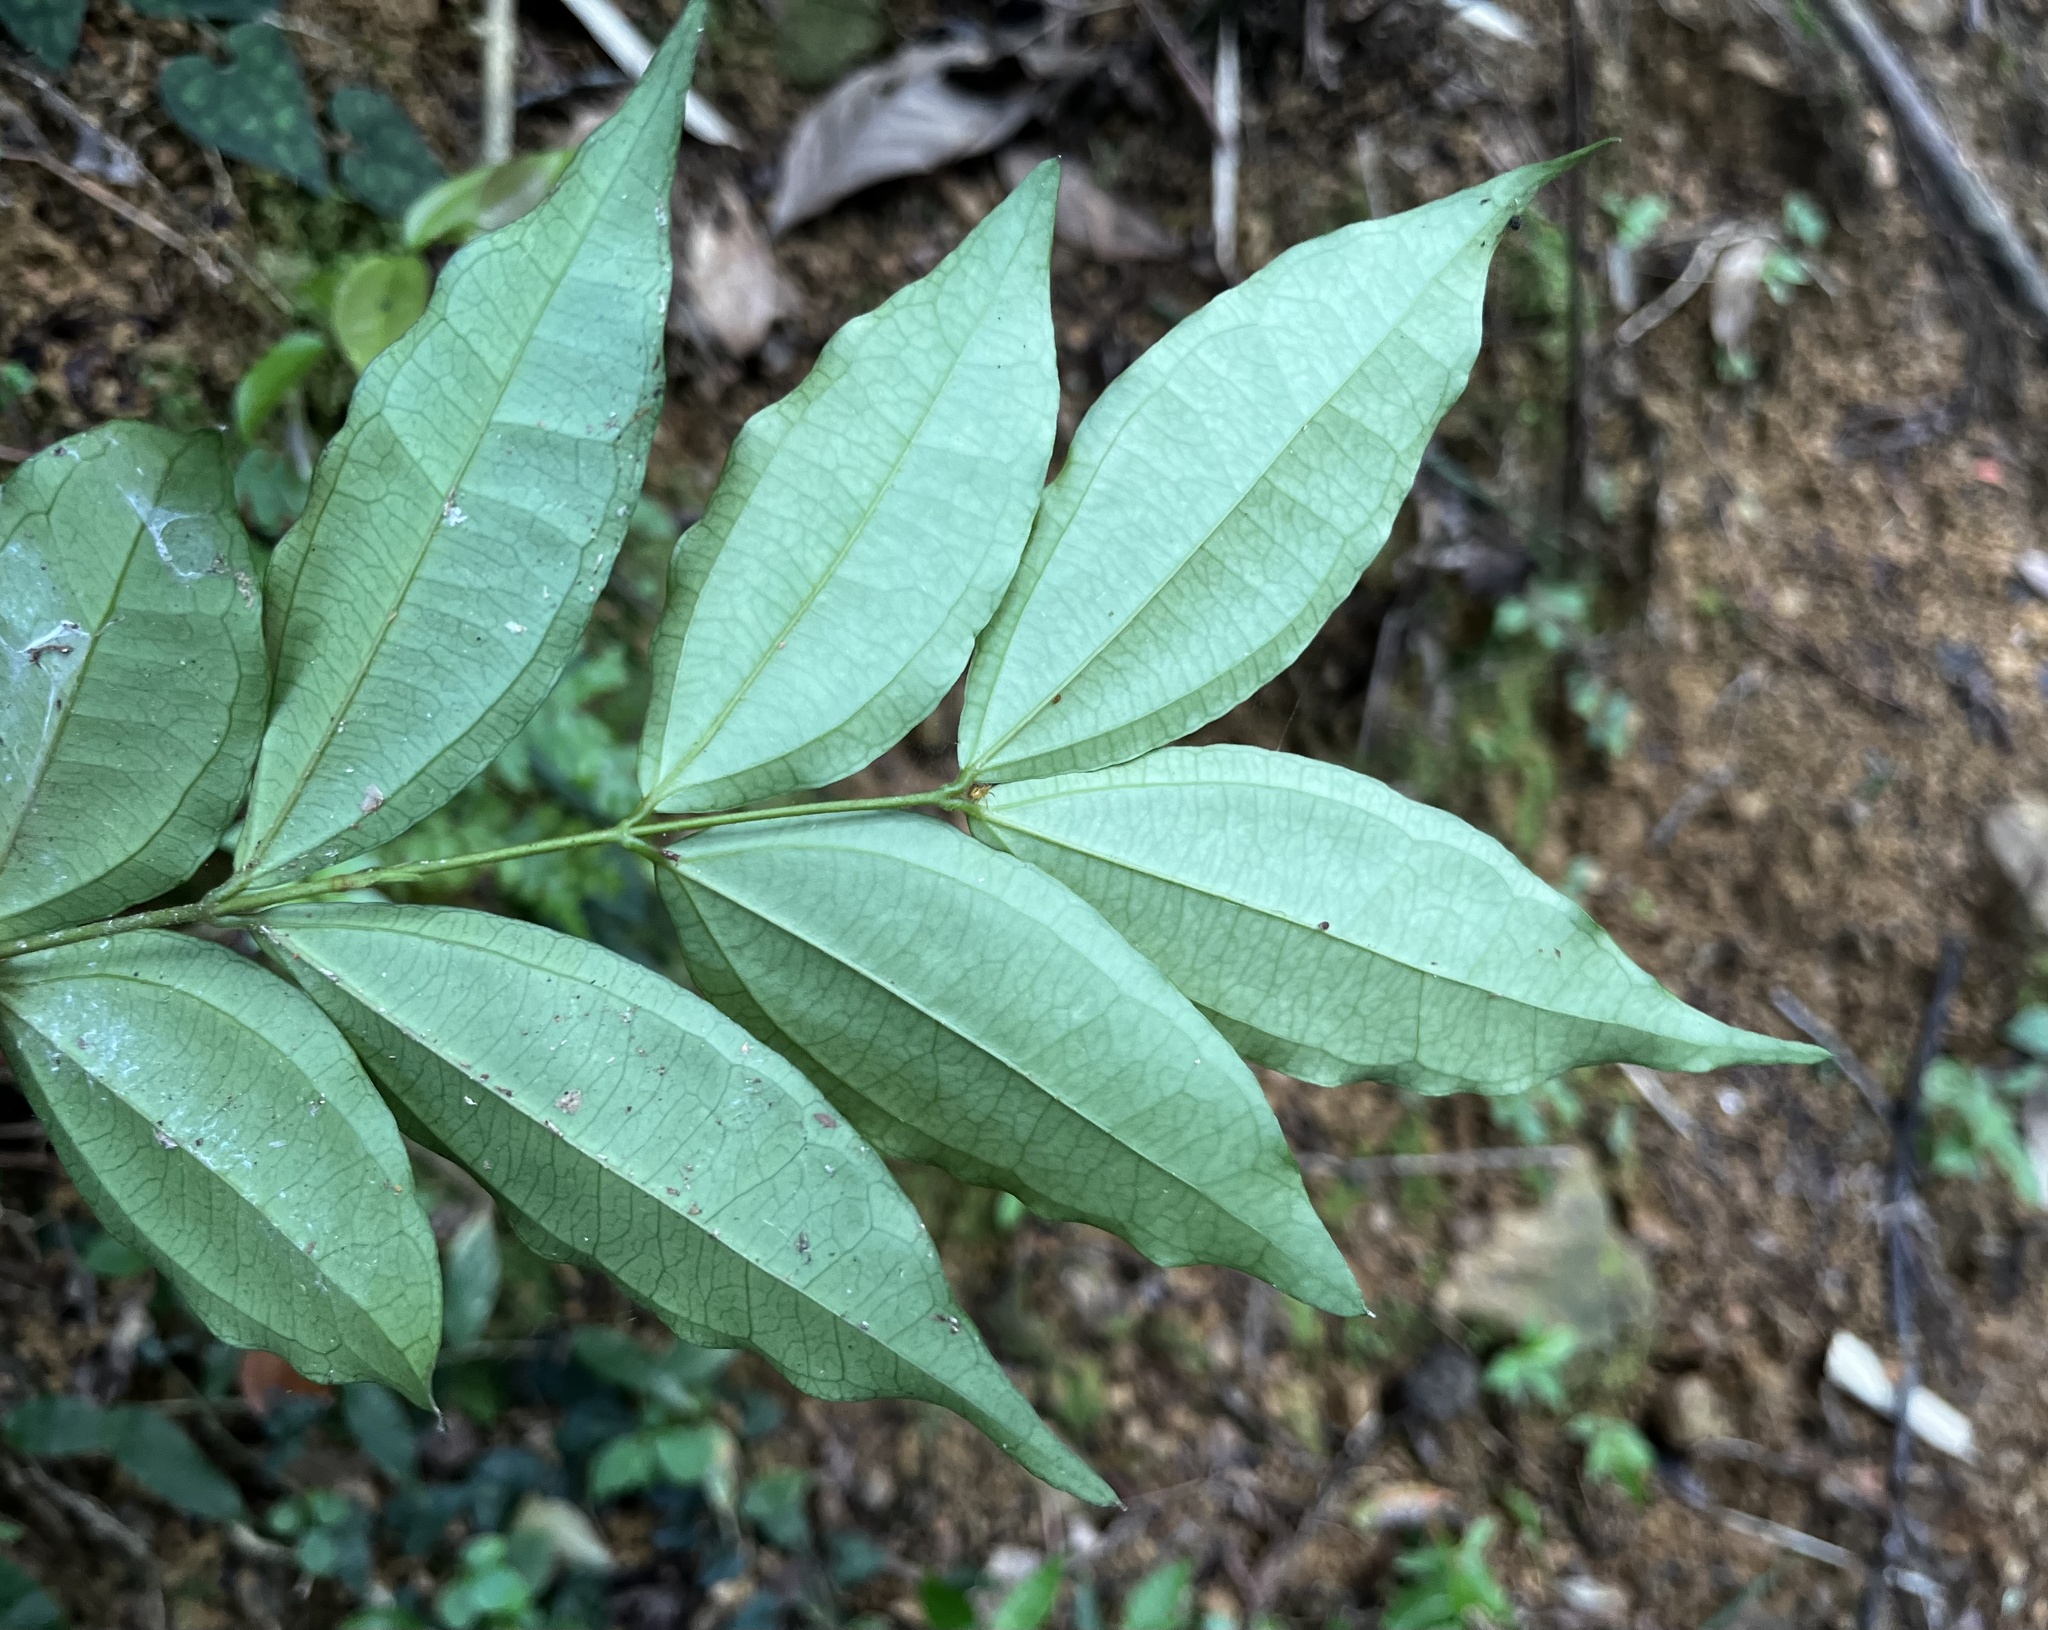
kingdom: Plantae
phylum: Tracheophyta
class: Magnoliopsida
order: Gentianales
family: Loganiaceae
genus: Strychnos
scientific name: Strychnos cathayensis
